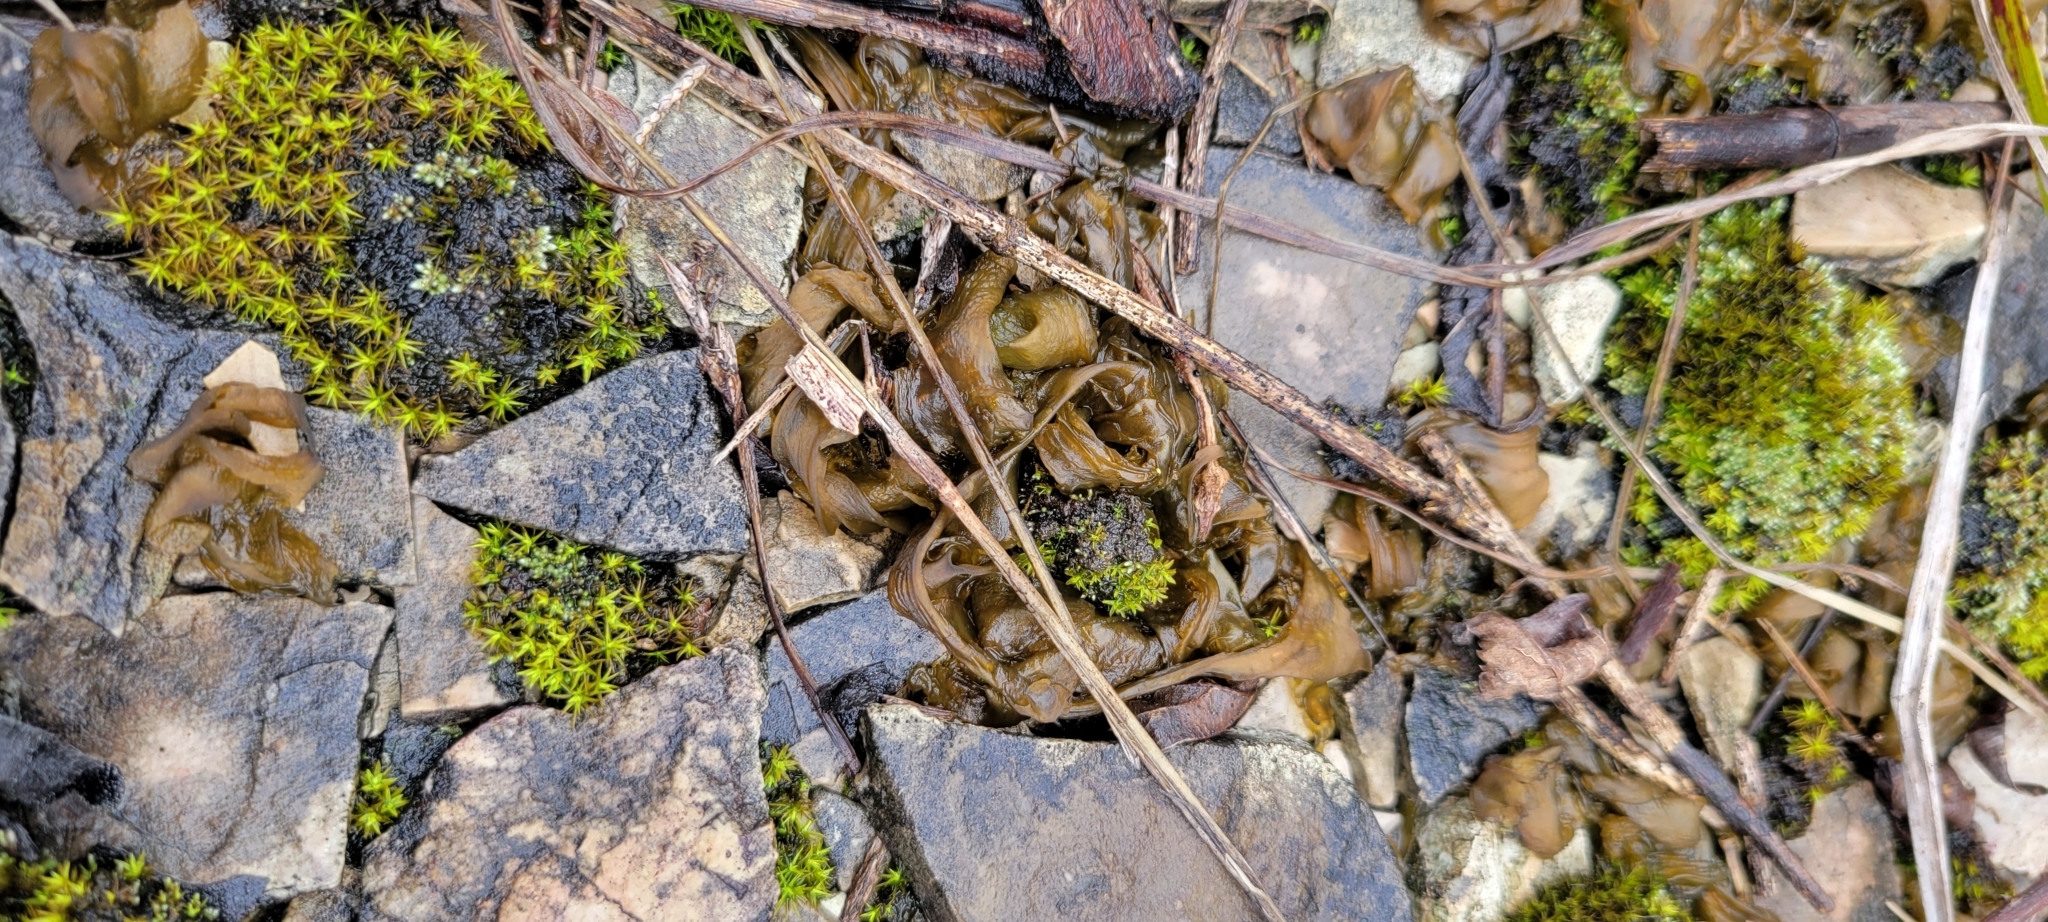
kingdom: Bacteria
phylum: Cyanobacteria
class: Cyanobacteriia
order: Cyanobacteriales
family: Nostocaceae
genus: Nostoc
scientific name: Nostoc commune
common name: Star jelly
